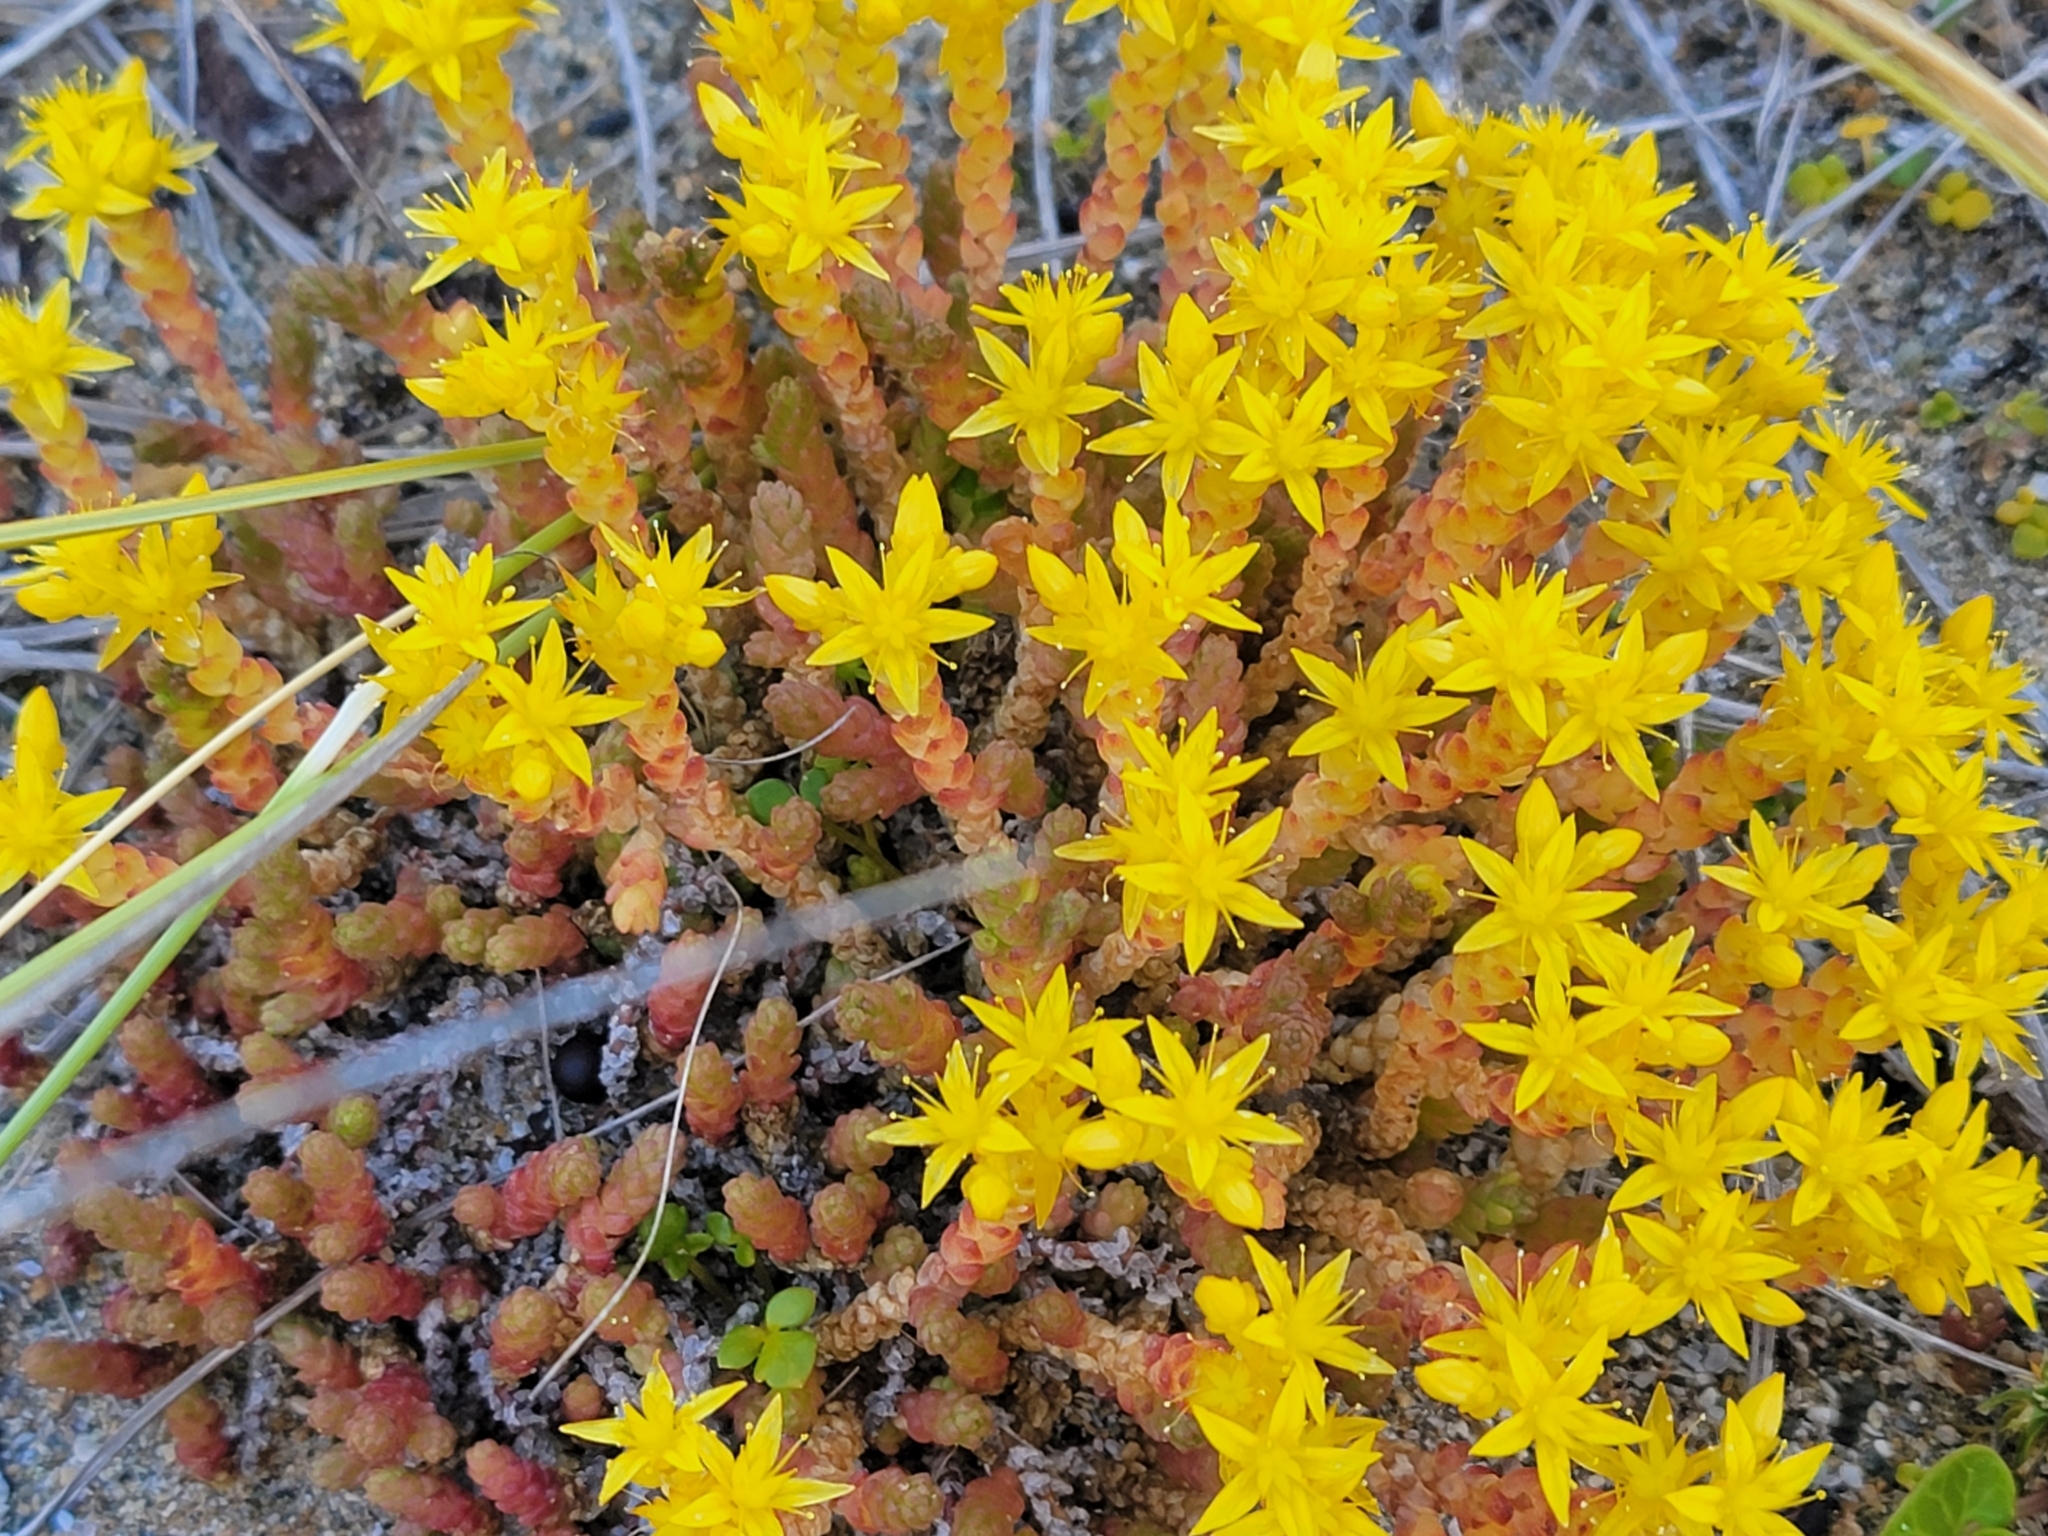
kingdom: Plantae
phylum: Tracheophyta
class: Magnoliopsida
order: Saxifragales
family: Crassulaceae
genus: Sedum
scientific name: Sedum acre
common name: Biting stonecrop
